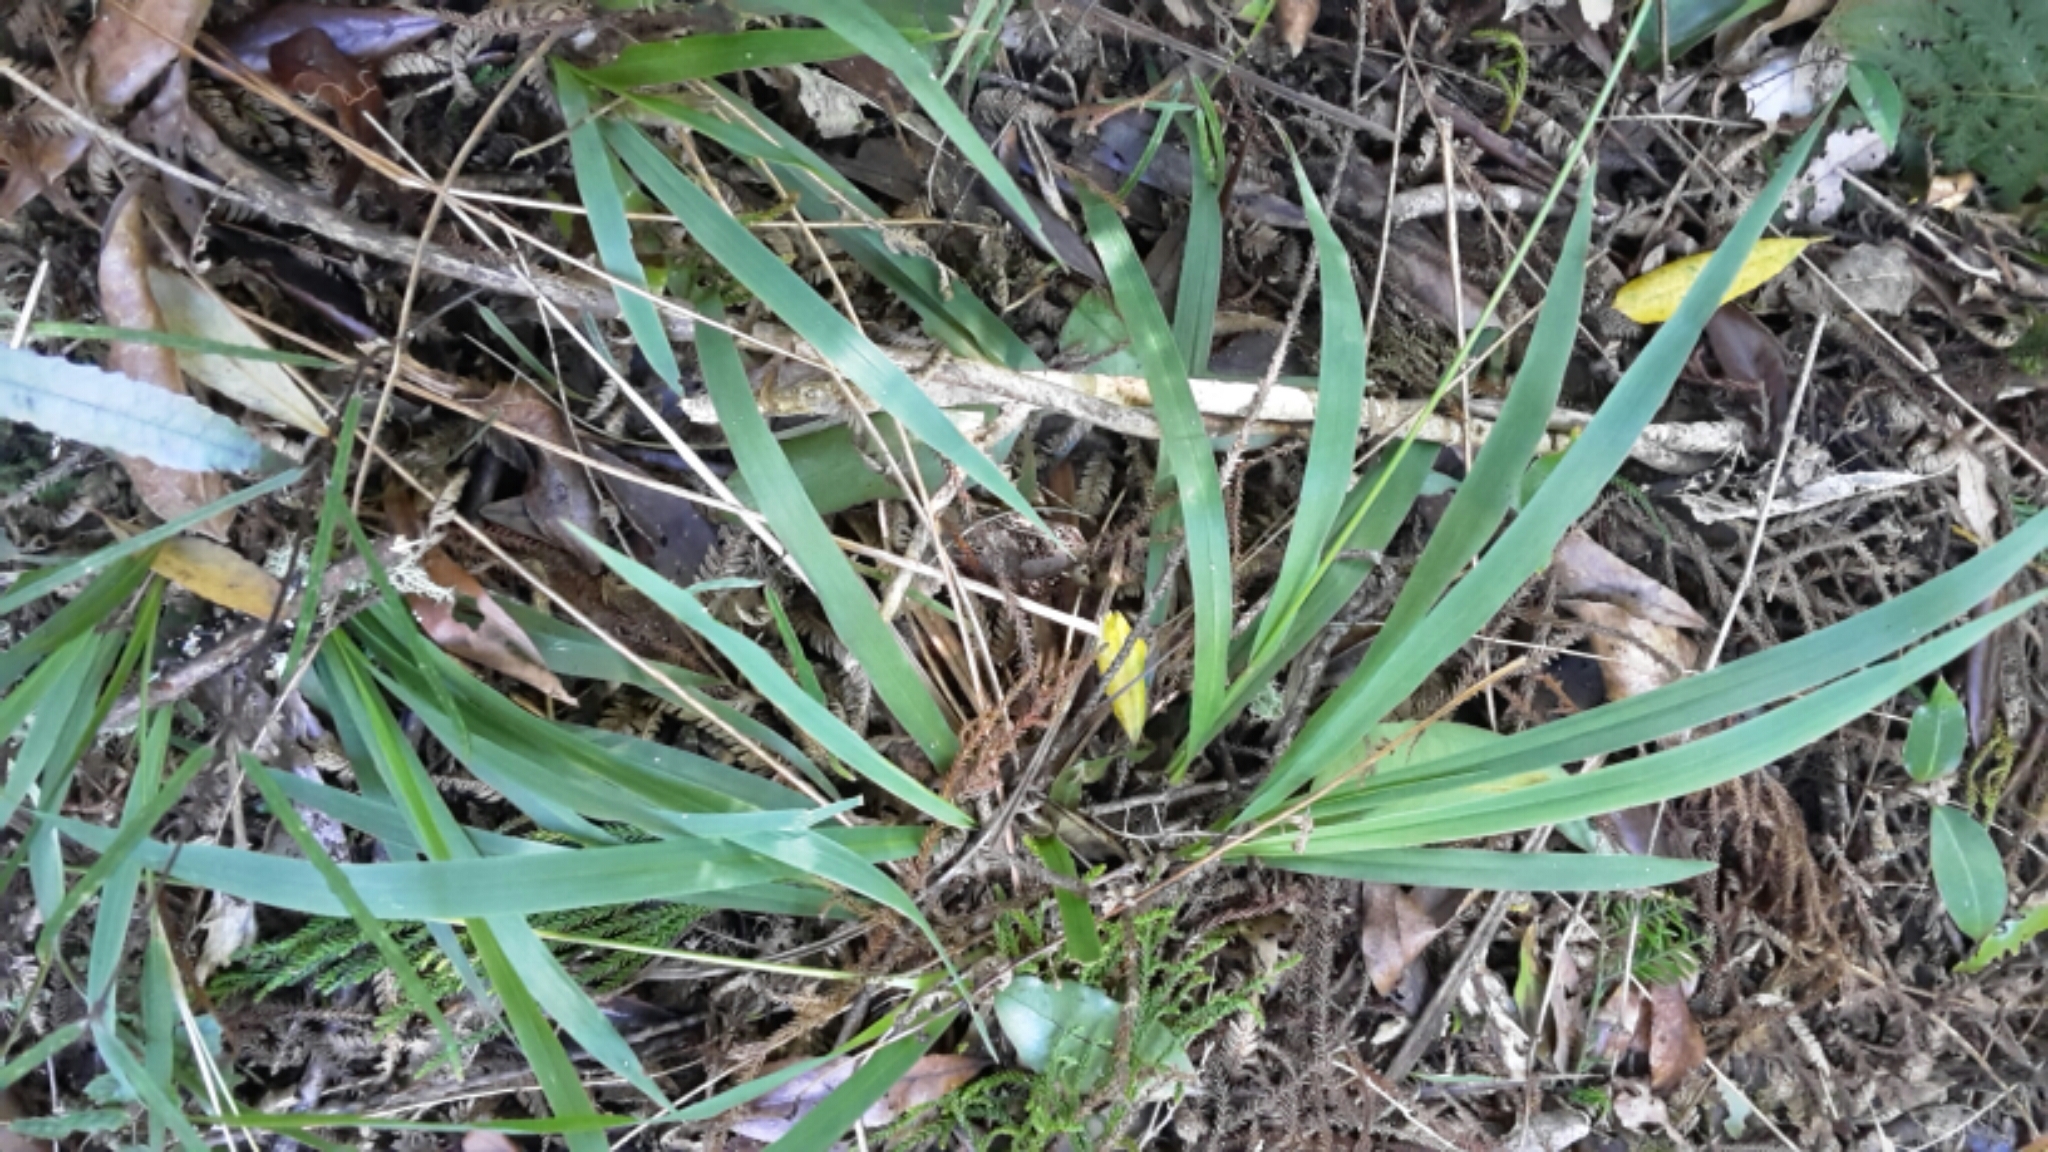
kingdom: Plantae
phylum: Tracheophyta
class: Liliopsida
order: Poales
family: Poaceae
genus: Ehrharta
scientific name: Ehrharta diplax
